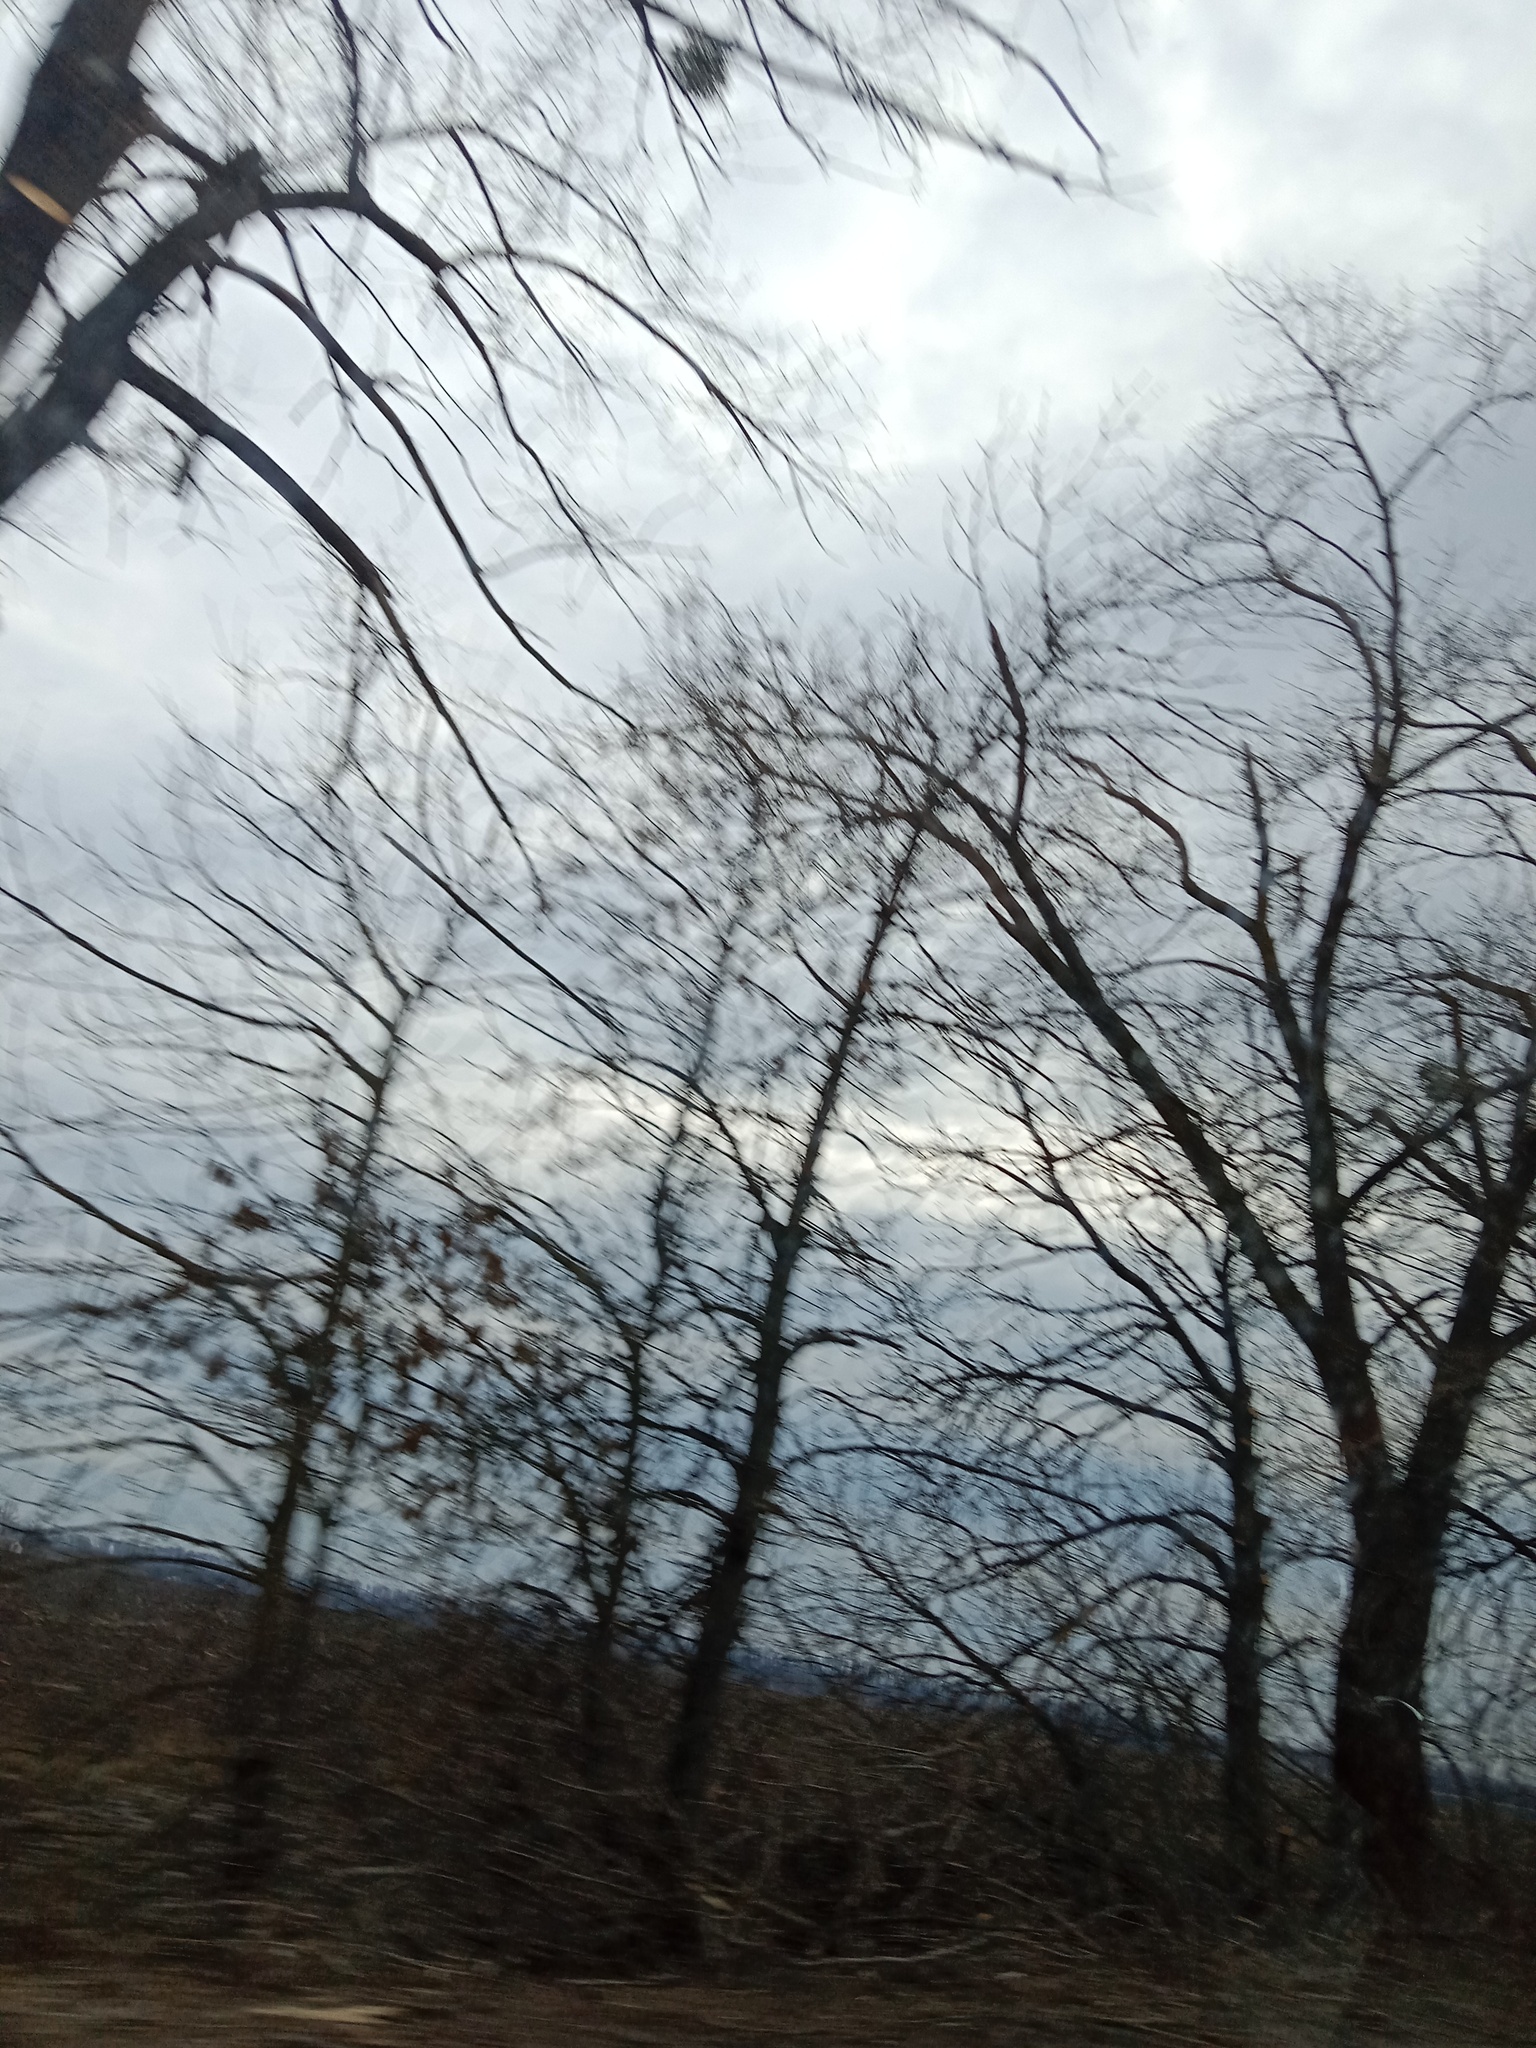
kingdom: Plantae
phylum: Tracheophyta
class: Magnoliopsida
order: Santalales
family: Viscaceae
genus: Viscum
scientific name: Viscum album
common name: Mistletoe
